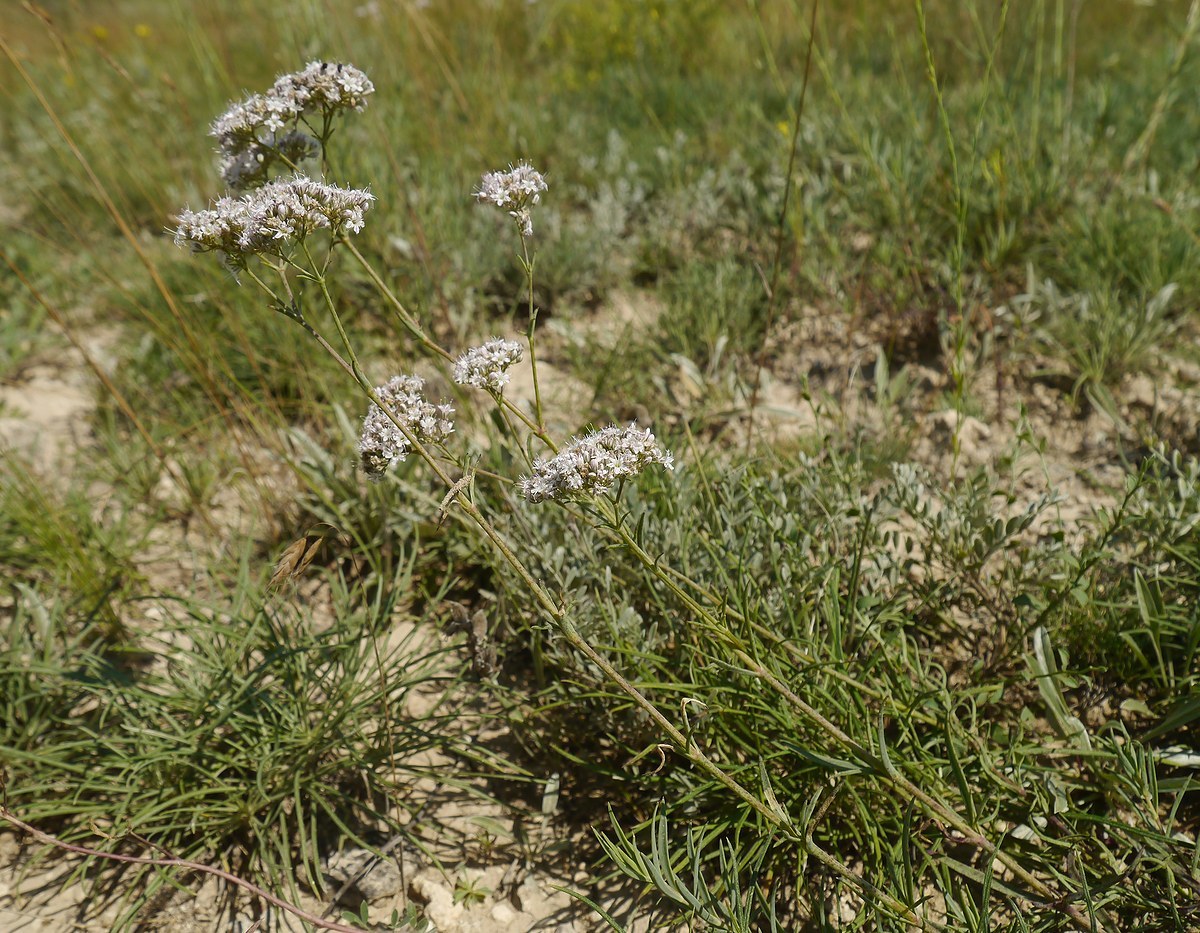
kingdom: Plantae
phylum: Tracheophyta
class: Magnoliopsida
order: Caryophyllales
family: Caryophyllaceae
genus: Gypsophila
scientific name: Gypsophila collina
